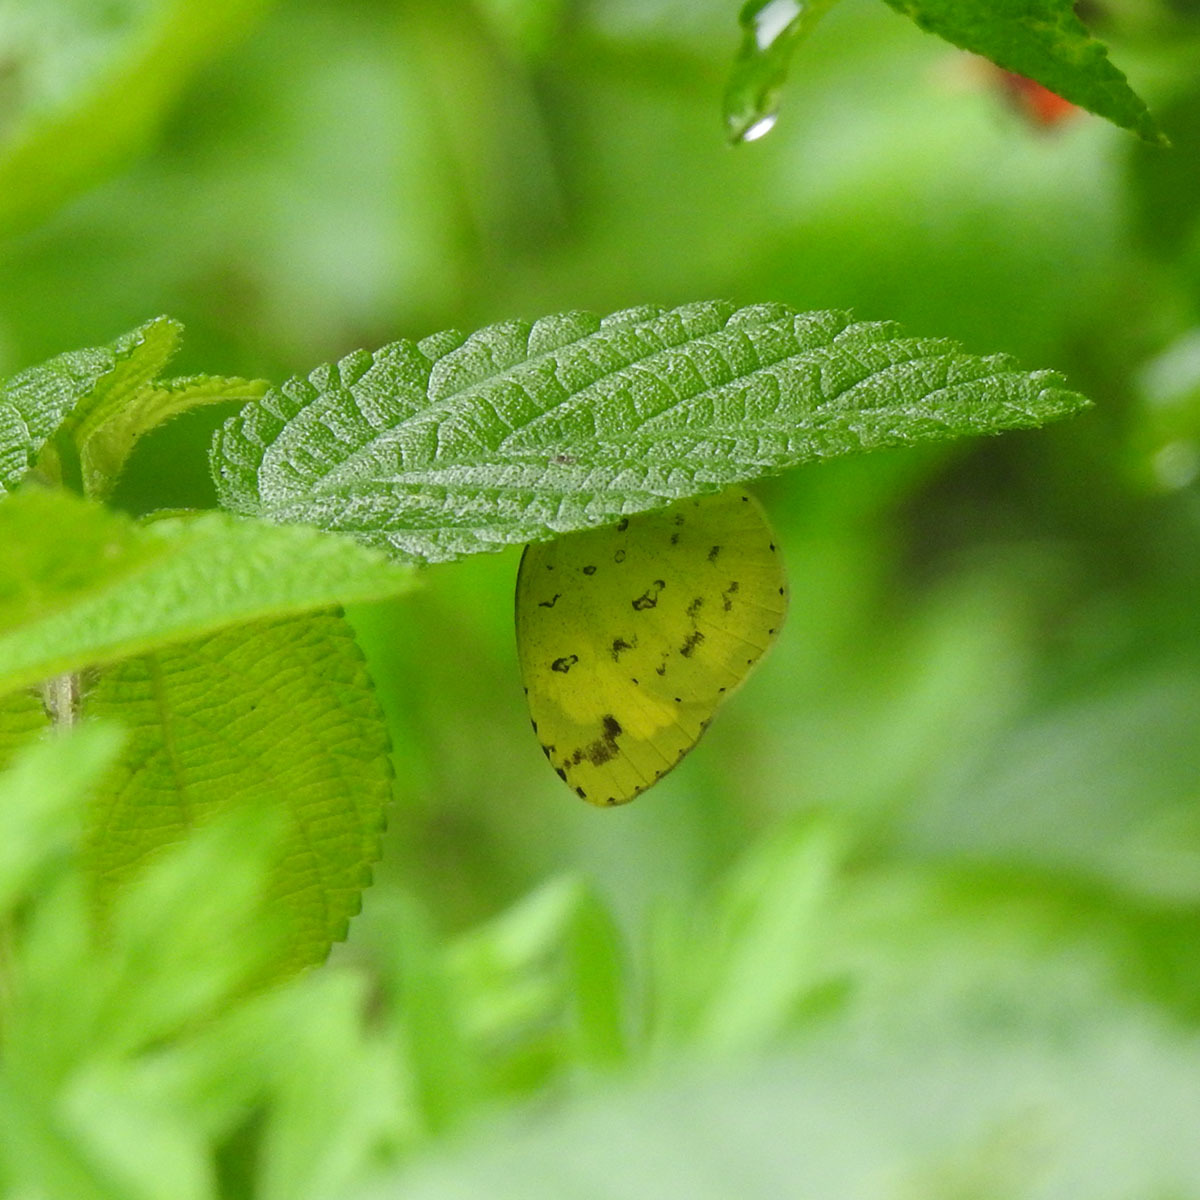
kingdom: Animalia
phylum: Arthropoda
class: Insecta
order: Lepidoptera
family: Pieridae
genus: Eurema
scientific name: Eurema hecabe
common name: Pale grass yellow
